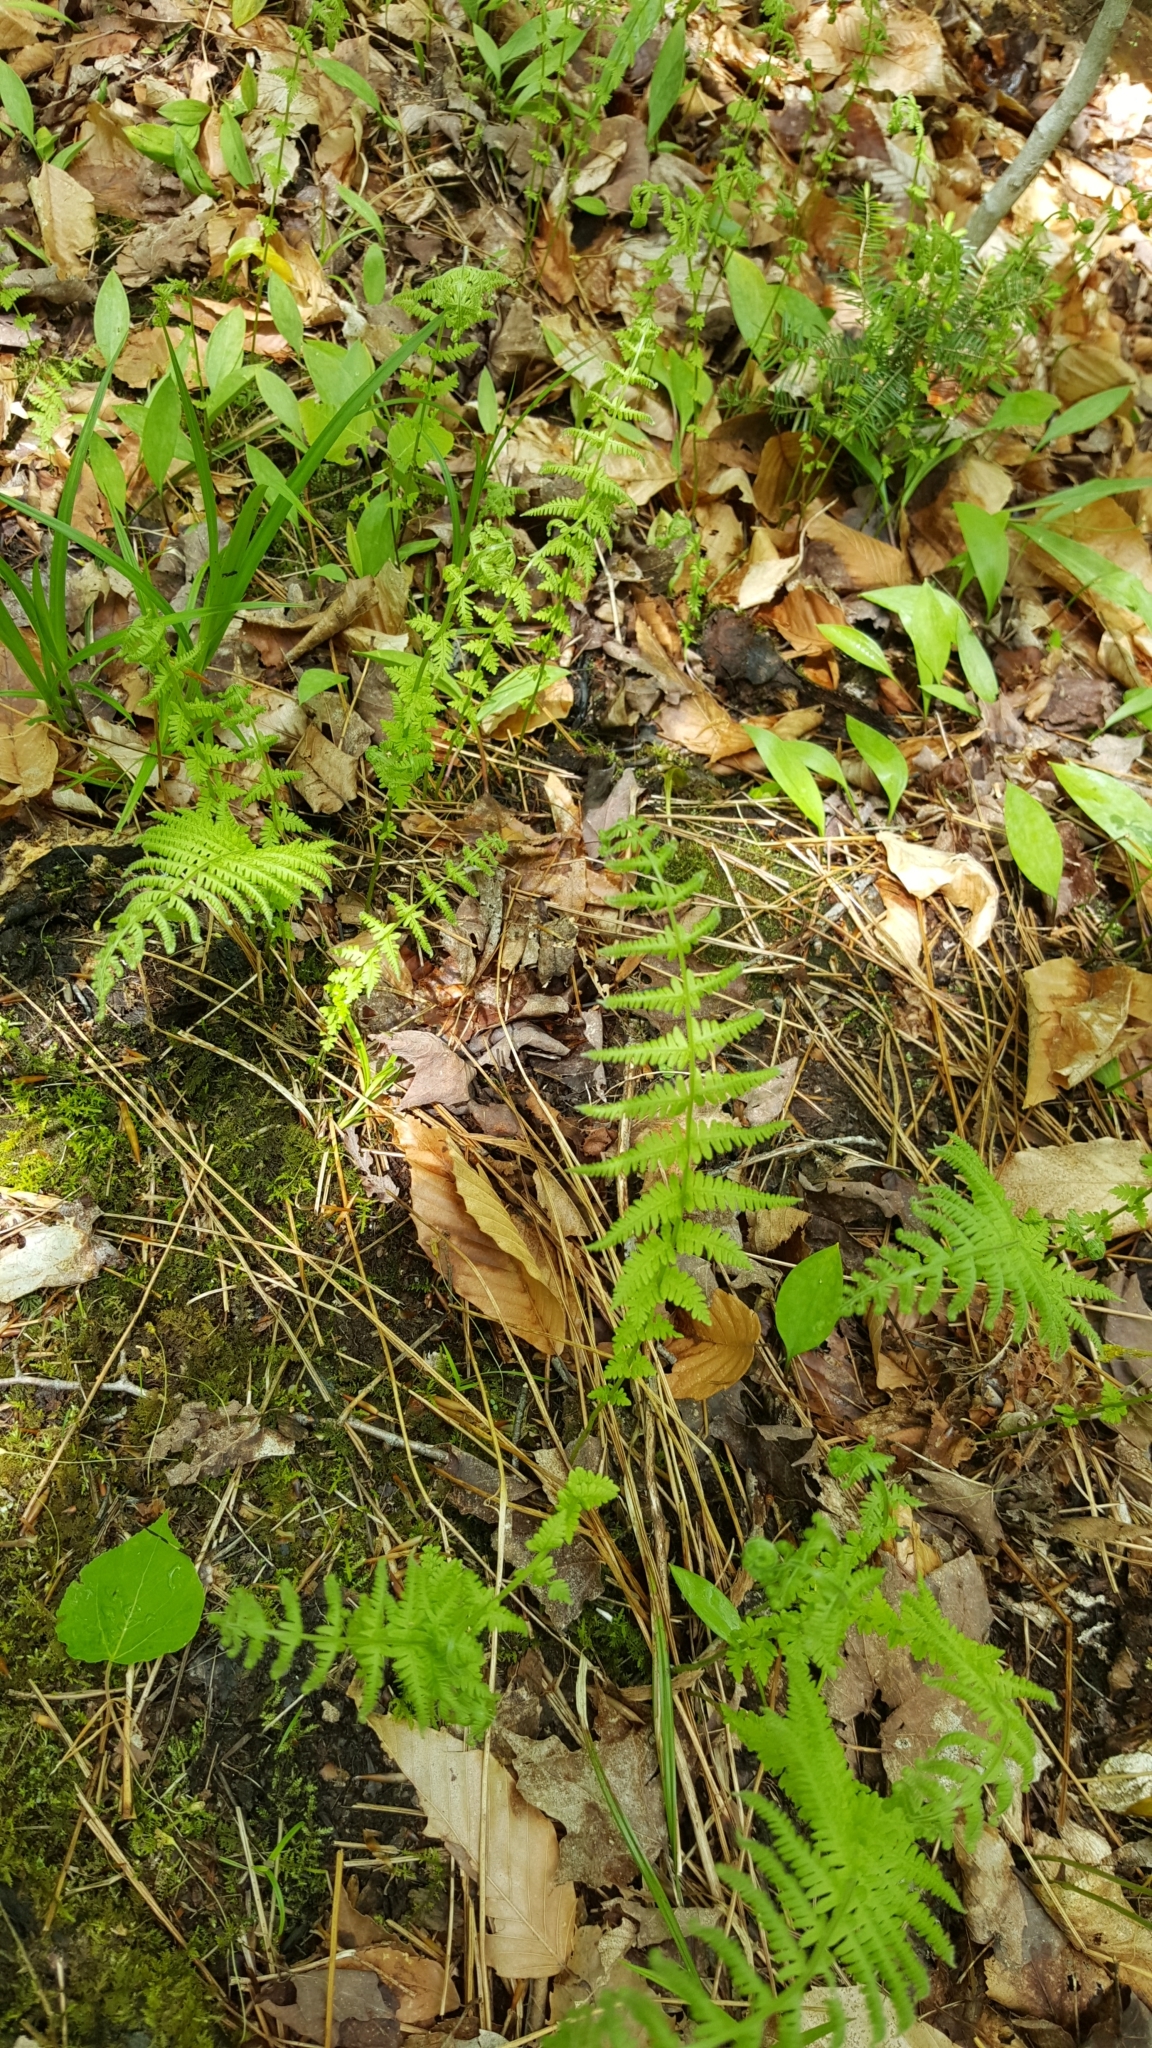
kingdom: Plantae
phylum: Tracheophyta
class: Polypodiopsida
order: Polypodiales
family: Thelypteridaceae
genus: Amauropelta
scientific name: Amauropelta noveboracensis
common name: New york fern
